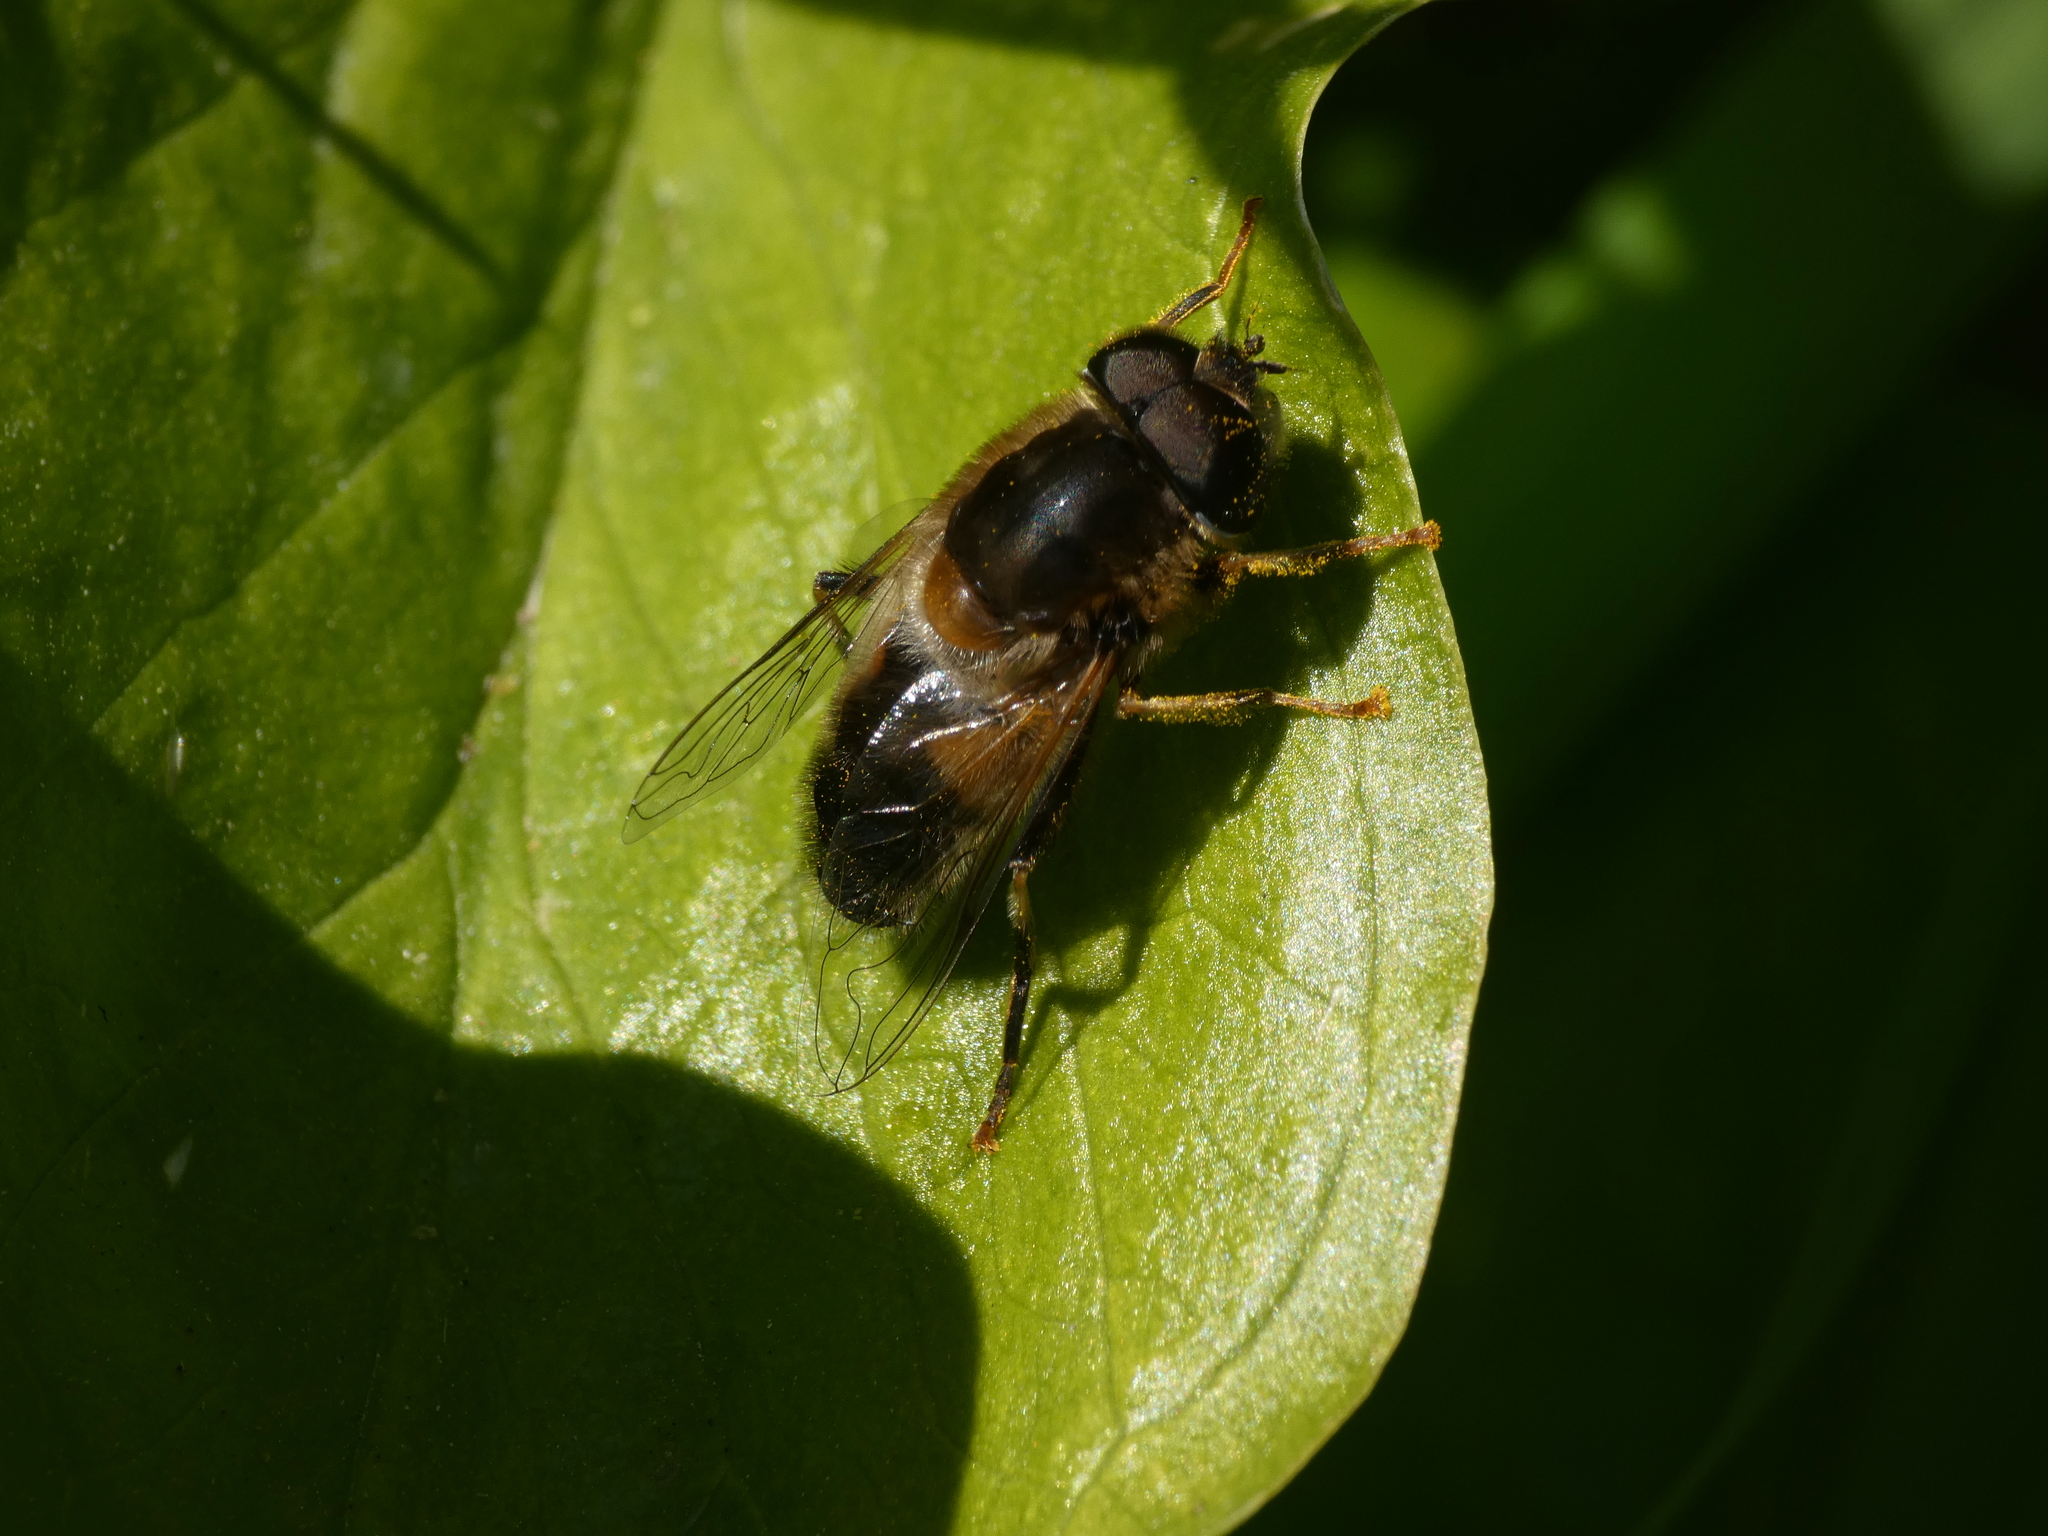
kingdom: Animalia
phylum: Arthropoda
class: Insecta
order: Diptera
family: Syrphidae
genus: Eristalis
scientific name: Eristalis pertinax
